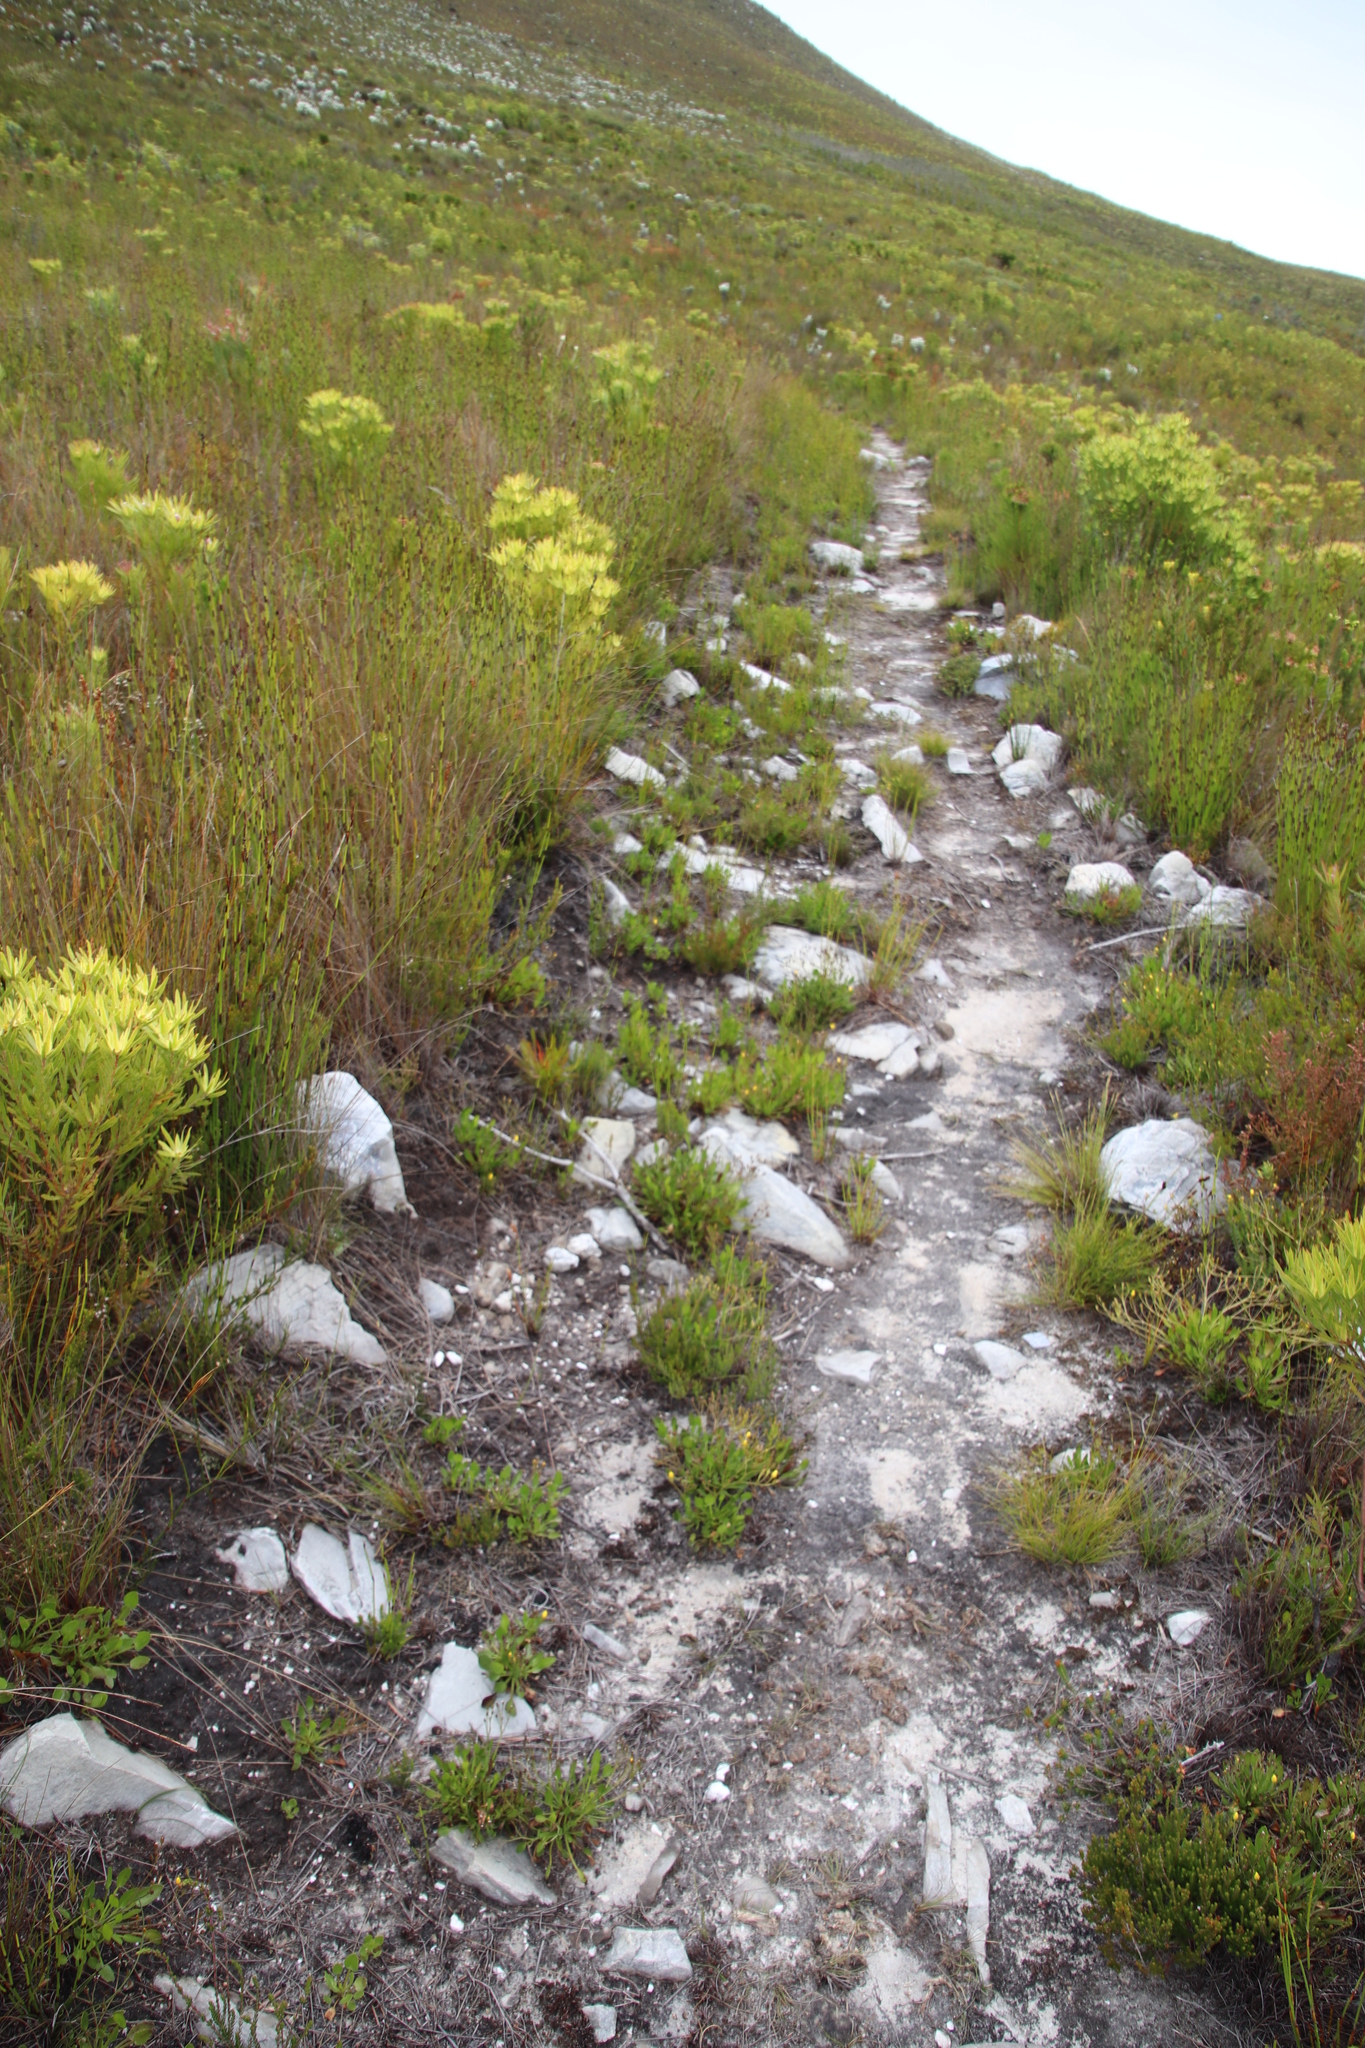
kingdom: Plantae
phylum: Tracheophyta
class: Magnoliopsida
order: Asterales
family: Menyanthaceae
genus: Villarsia
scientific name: Villarsia manningiana
